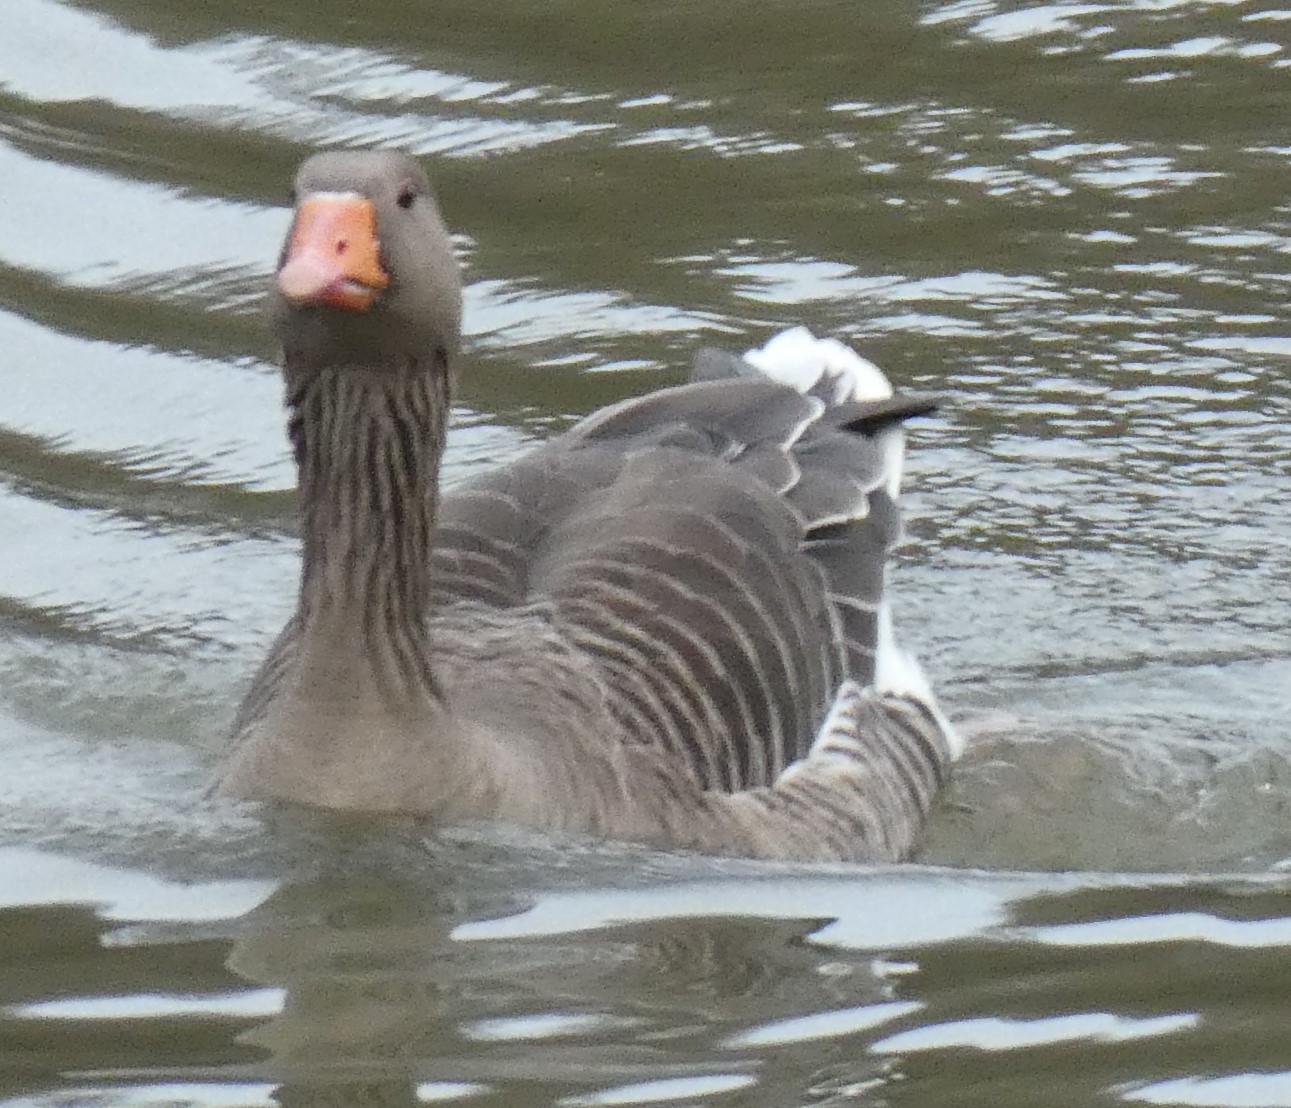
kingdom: Animalia
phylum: Chordata
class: Aves
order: Anseriformes
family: Anatidae
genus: Anser
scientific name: Anser anser
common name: Greylag goose
